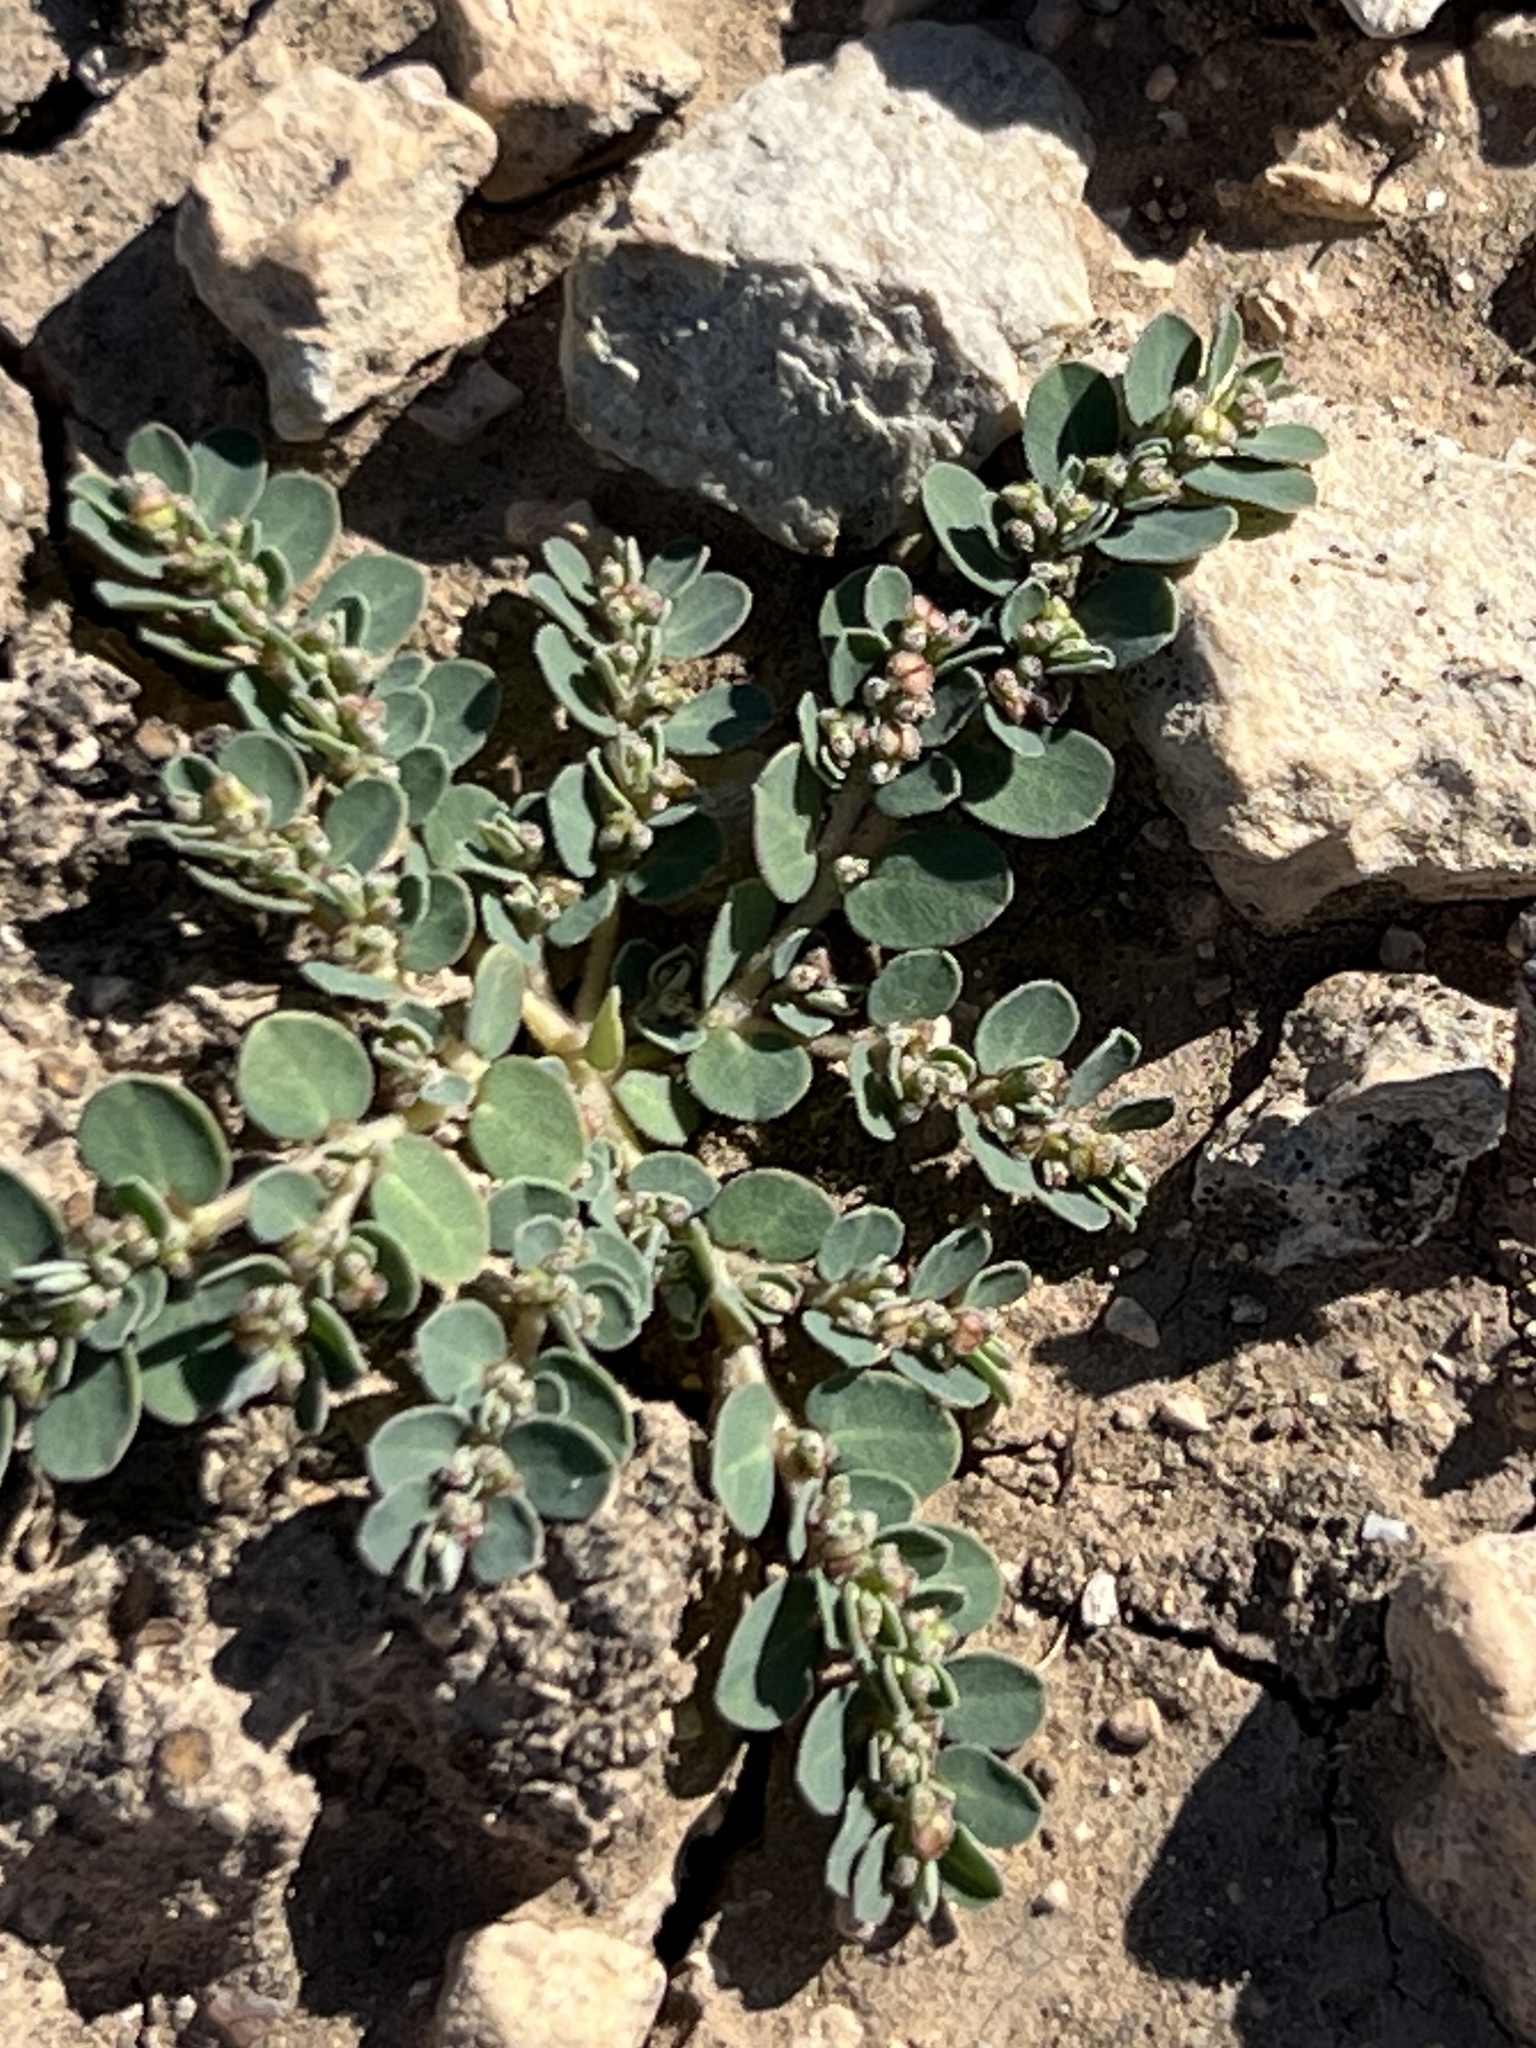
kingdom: Plantae
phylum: Tracheophyta
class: Magnoliopsida
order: Malpighiales
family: Euphorbiaceae
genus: Euphorbia
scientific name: Euphorbia prostrata
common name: Prostrate sandmat
